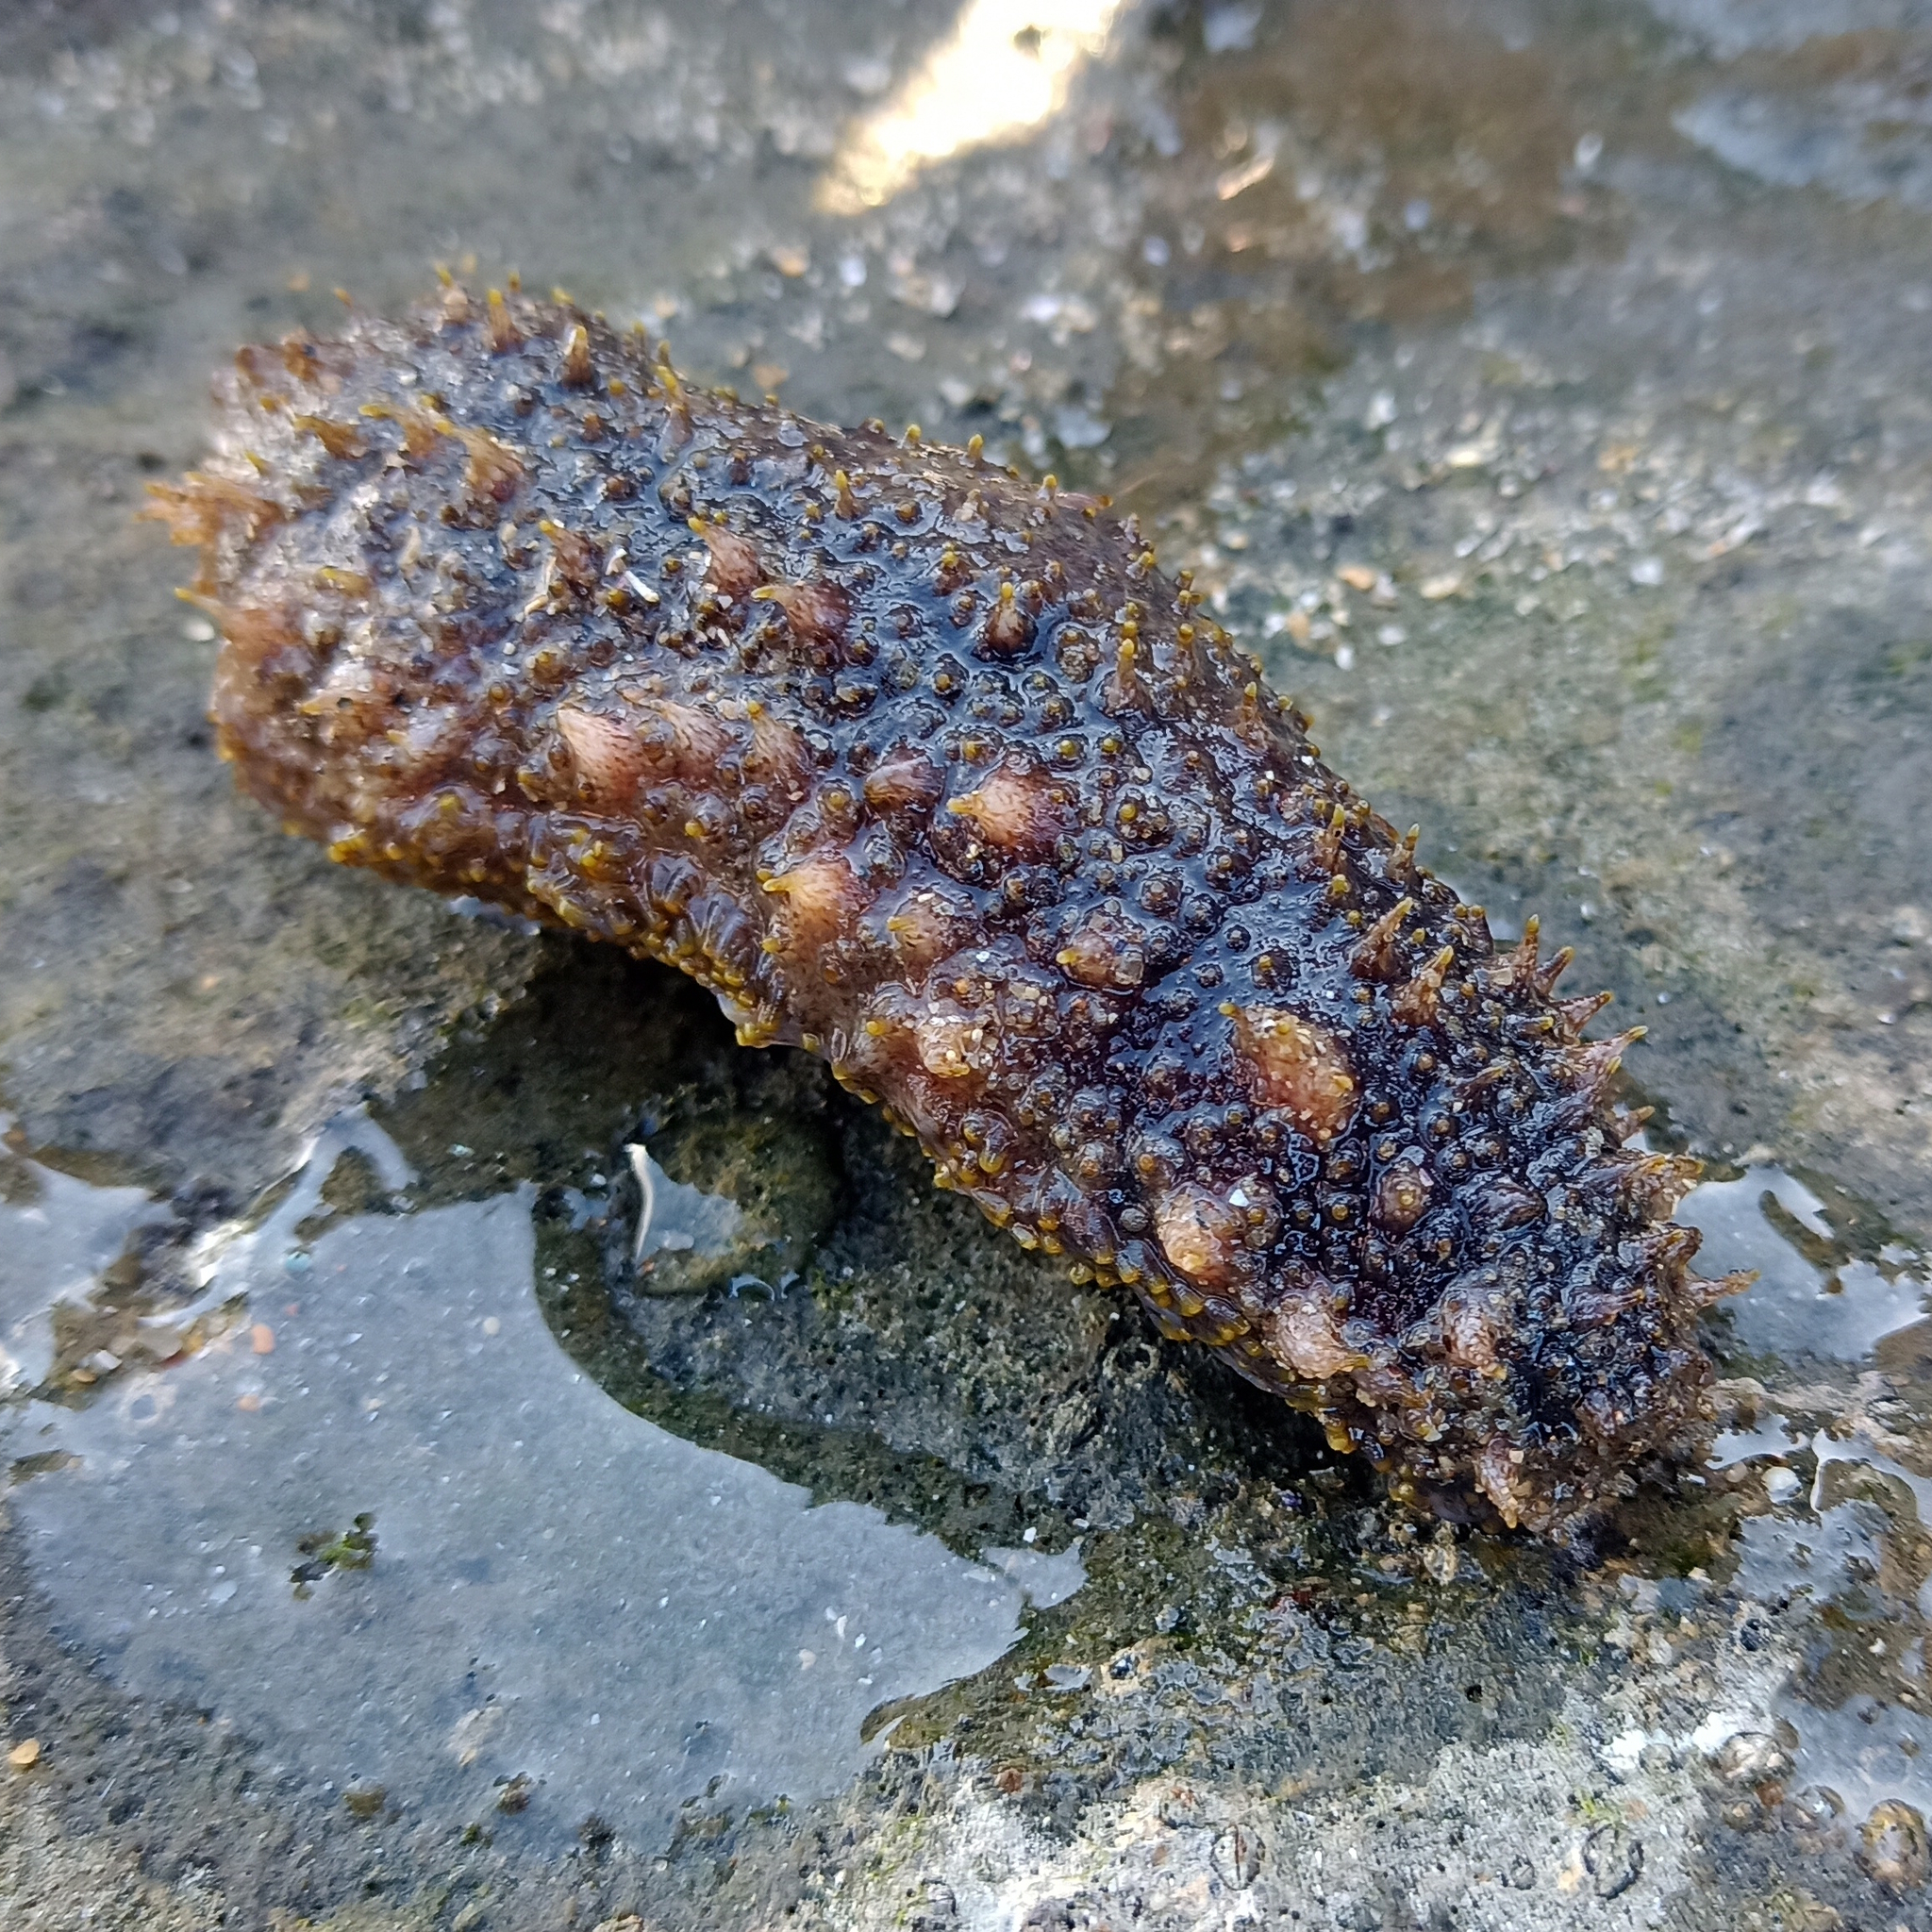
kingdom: Animalia
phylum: Echinodermata
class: Holothuroidea
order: Holothuriida
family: Holothuriidae
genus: Holothuria
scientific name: Holothuria grisea
